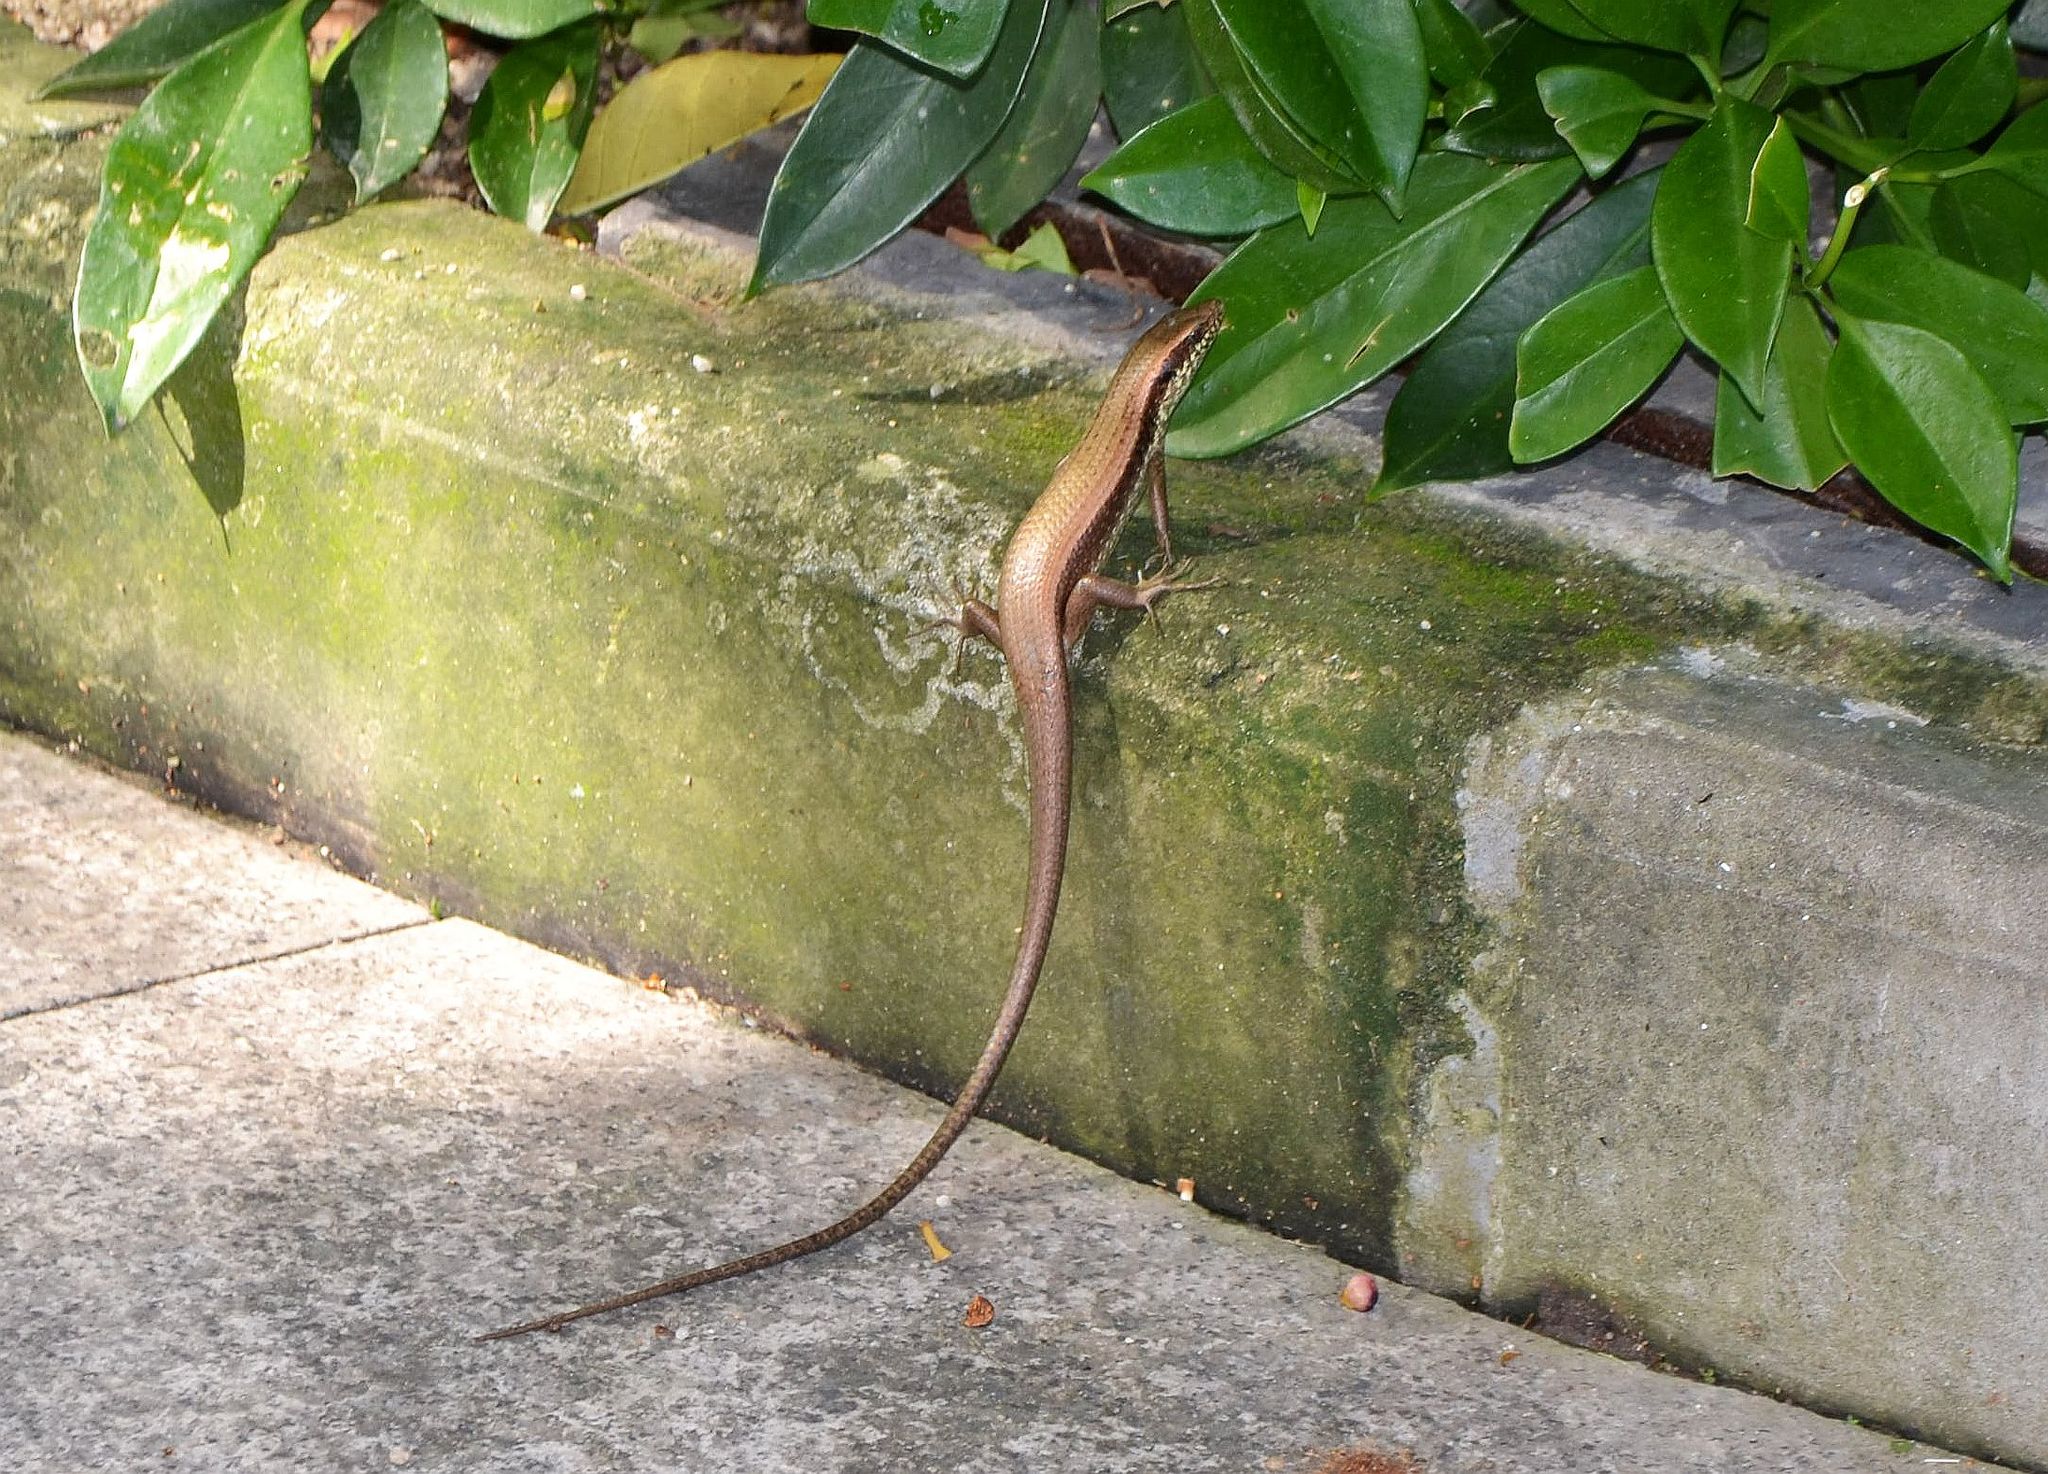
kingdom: Animalia
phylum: Chordata
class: Squamata
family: Scincidae
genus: Eutropis
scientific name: Eutropis longicaudata
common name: Long-tailed sun skink
